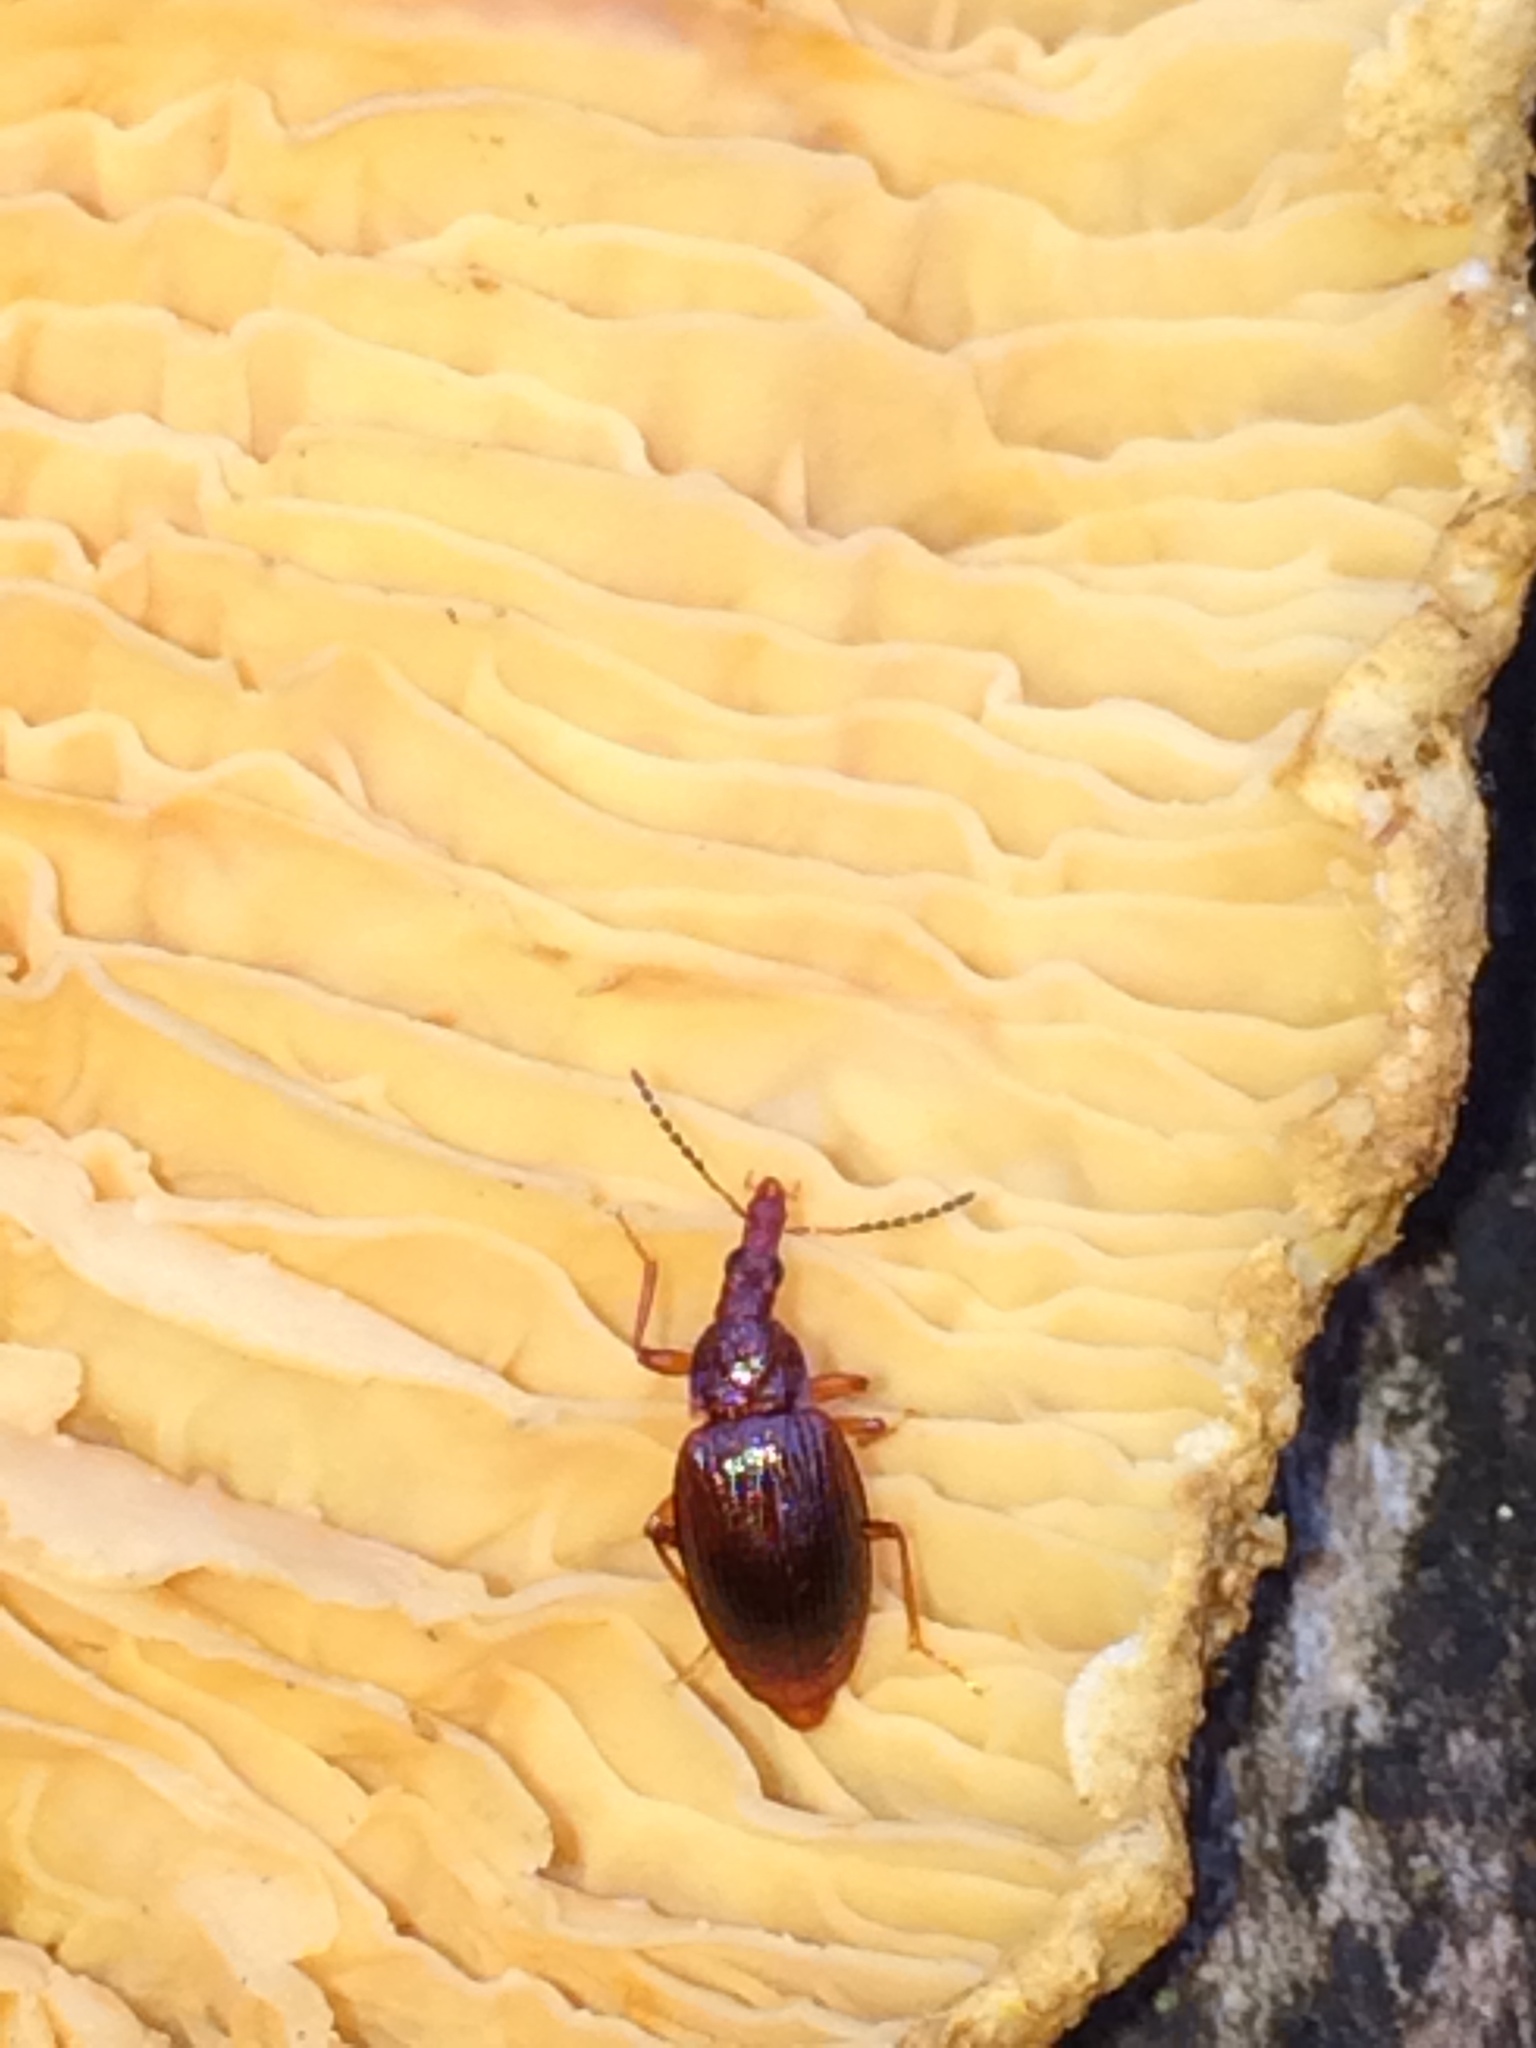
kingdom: Animalia
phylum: Arthropoda
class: Insecta
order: Coleoptera
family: Staphylinidae
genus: Tanyrhinus
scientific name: Tanyrhinus singularis
